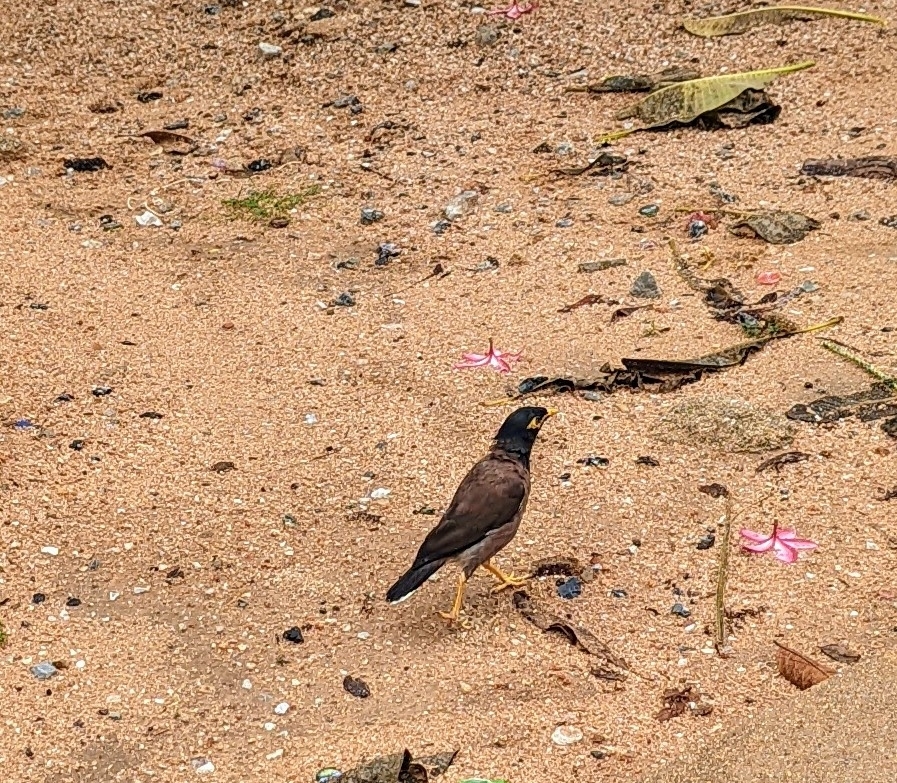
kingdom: Animalia
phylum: Chordata
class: Aves
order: Passeriformes
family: Sturnidae
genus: Acridotheres
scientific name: Acridotheres tristis
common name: Common myna
